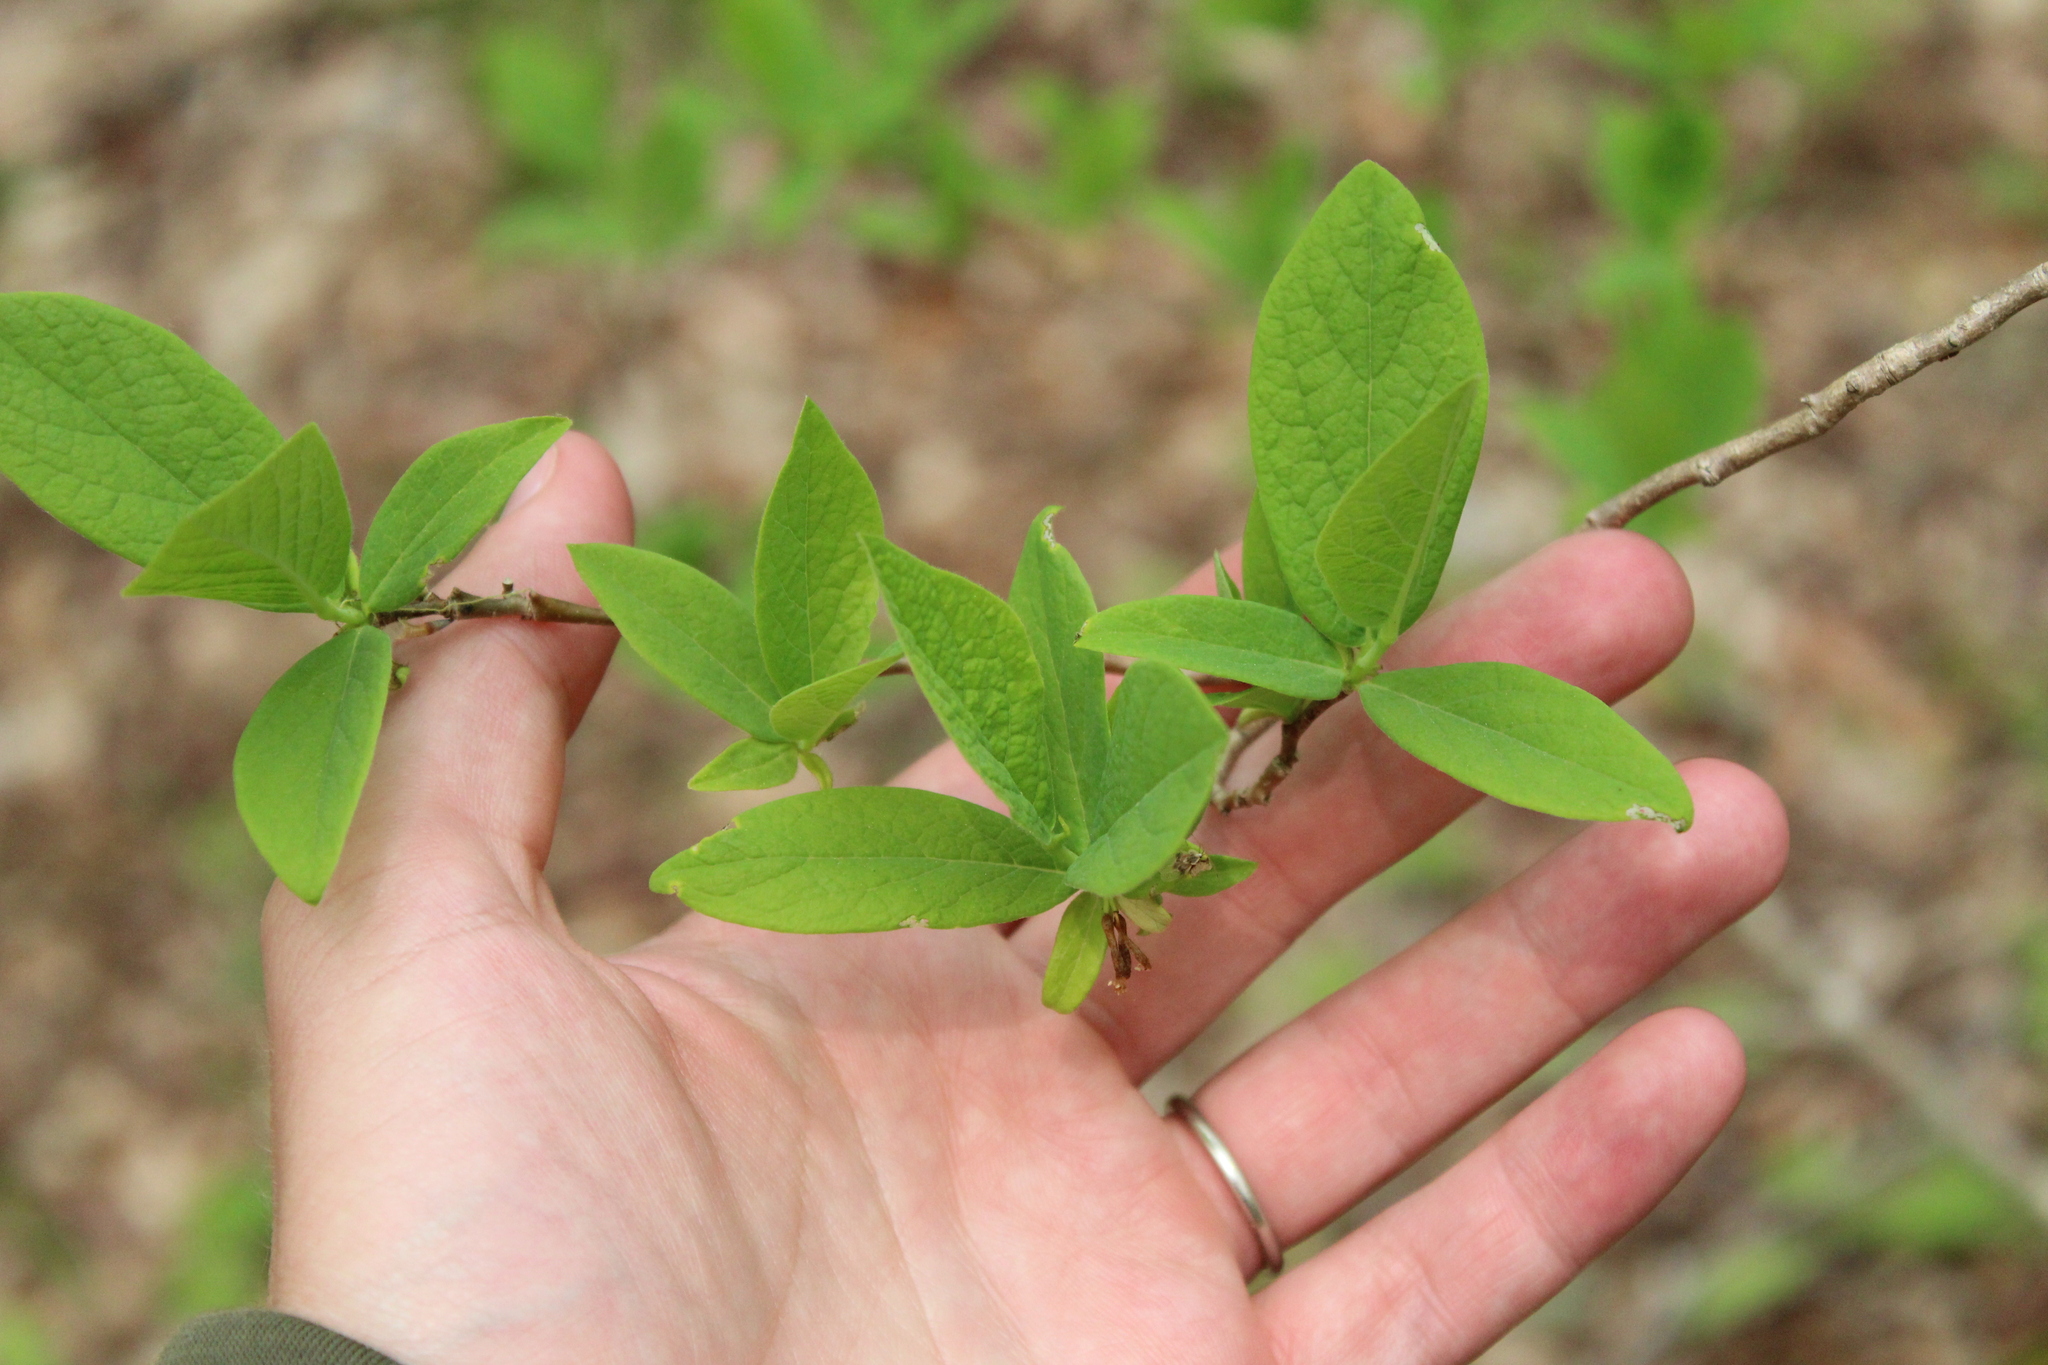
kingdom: Plantae
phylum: Tracheophyta
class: Magnoliopsida
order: Malvales
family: Thymelaeaceae
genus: Dirca
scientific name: Dirca palustris
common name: Leatherwood
